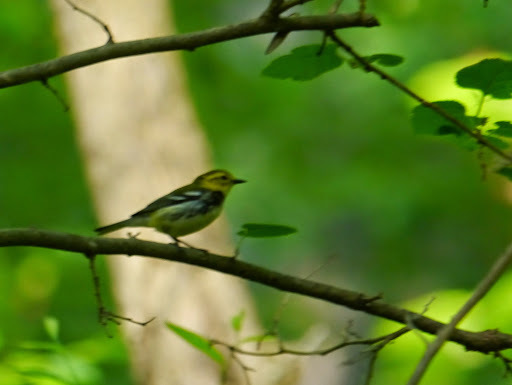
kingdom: Animalia
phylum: Chordata
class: Aves
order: Passeriformes
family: Parulidae
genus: Setophaga
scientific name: Setophaga virens
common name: Black-throated green warbler
